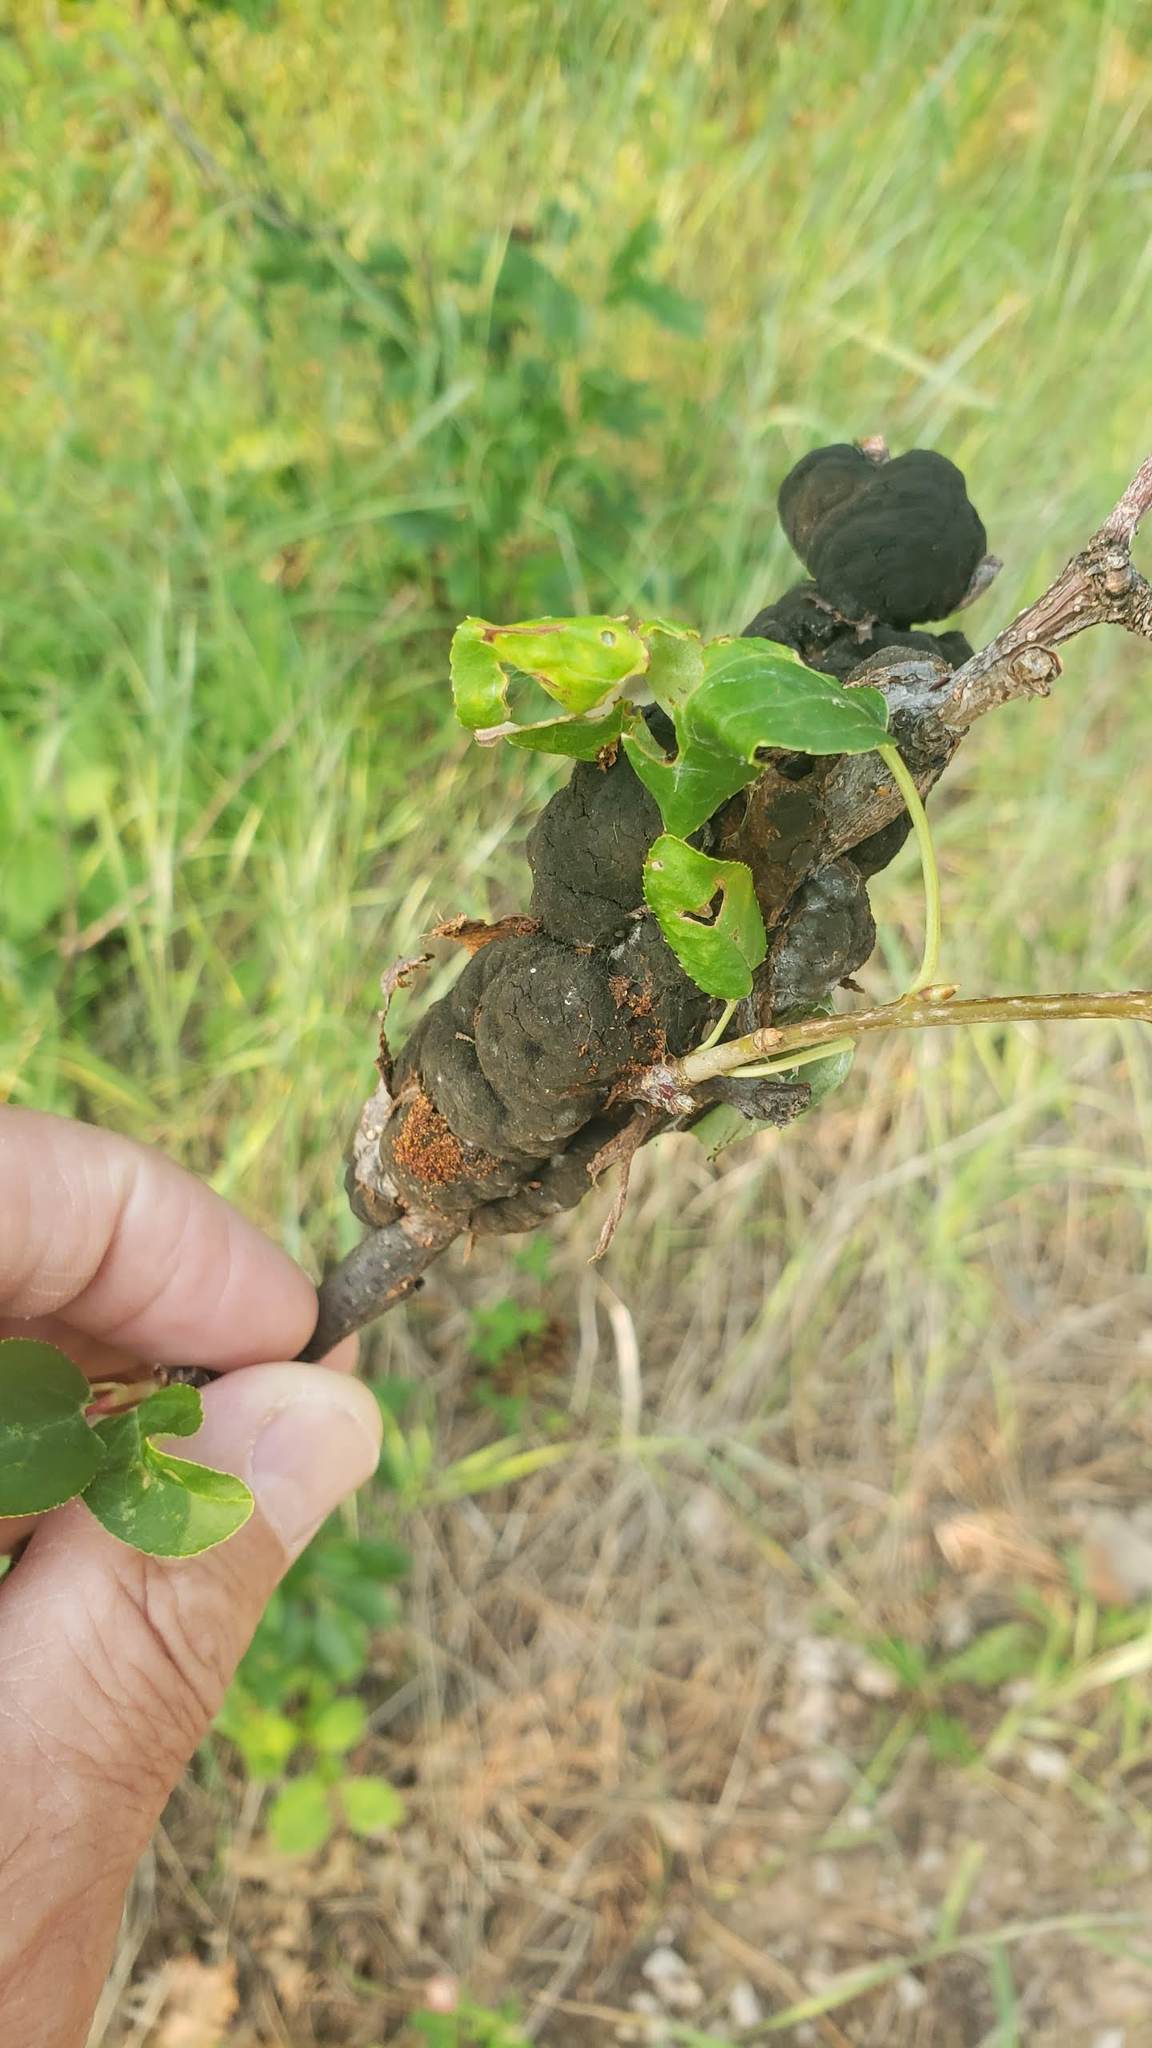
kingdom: Fungi
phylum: Ascomycota
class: Dothideomycetes
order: Venturiales
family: Venturiaceae
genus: Apiosporina
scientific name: Apiosporina morbosa
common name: Black knot
